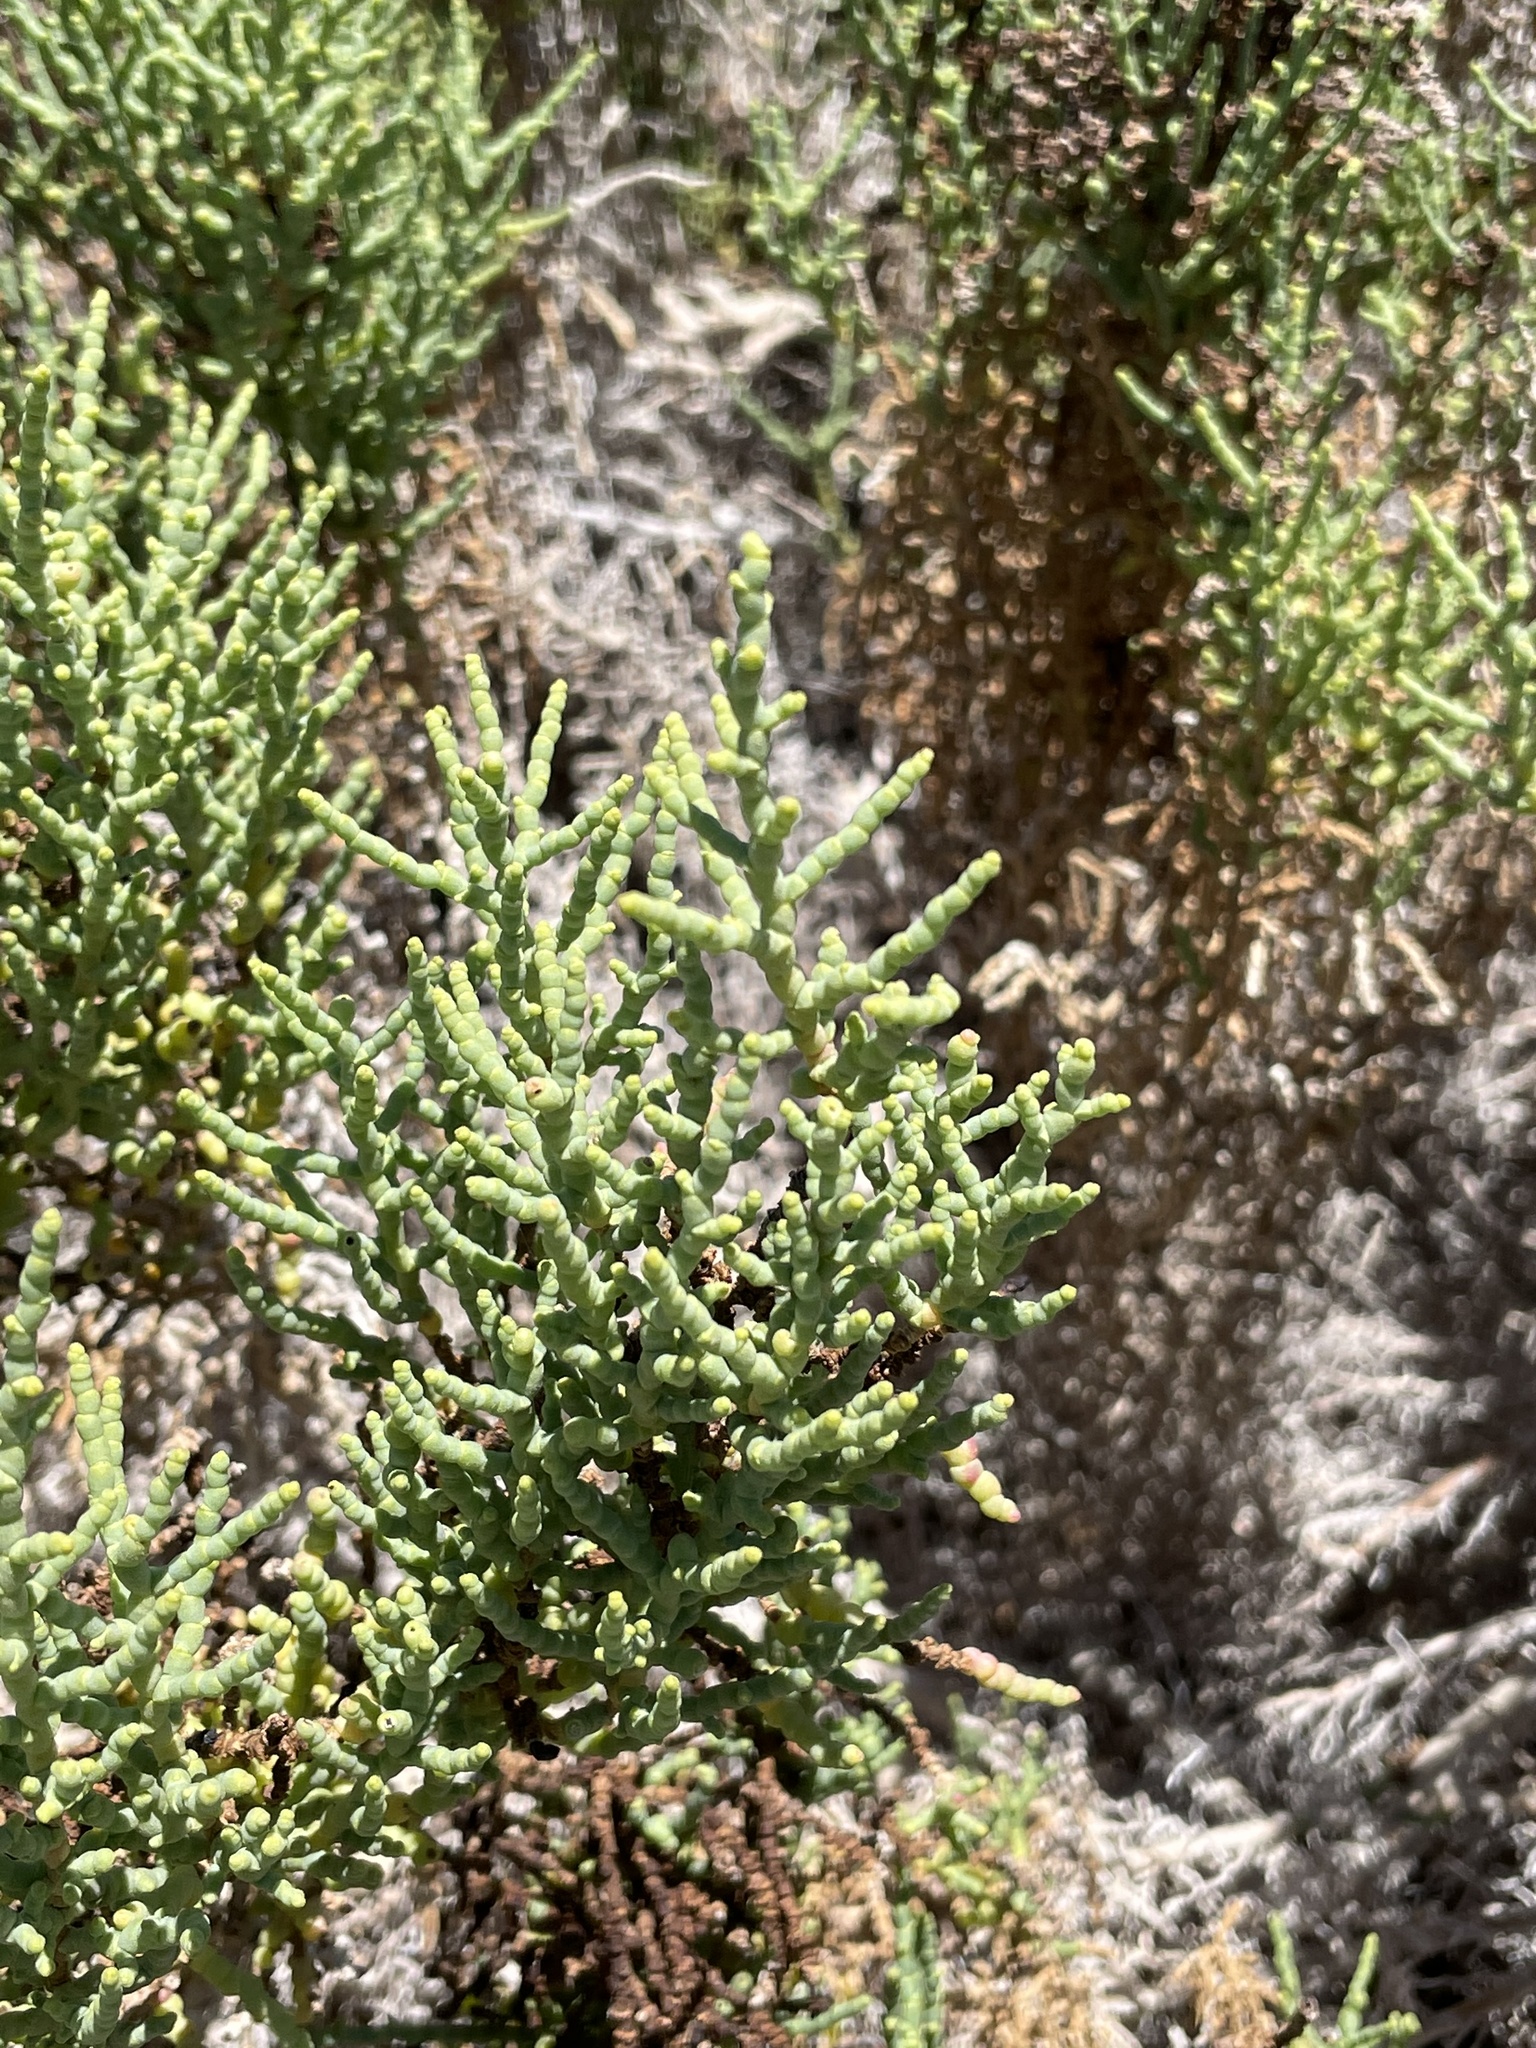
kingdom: Plantae
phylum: Tracheophyta
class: Magnoliopsida
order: Caryophyllales
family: Amaranthaceae
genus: Allenrolfea
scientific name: Allenrolfea occidentalis
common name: Iodine-bush
